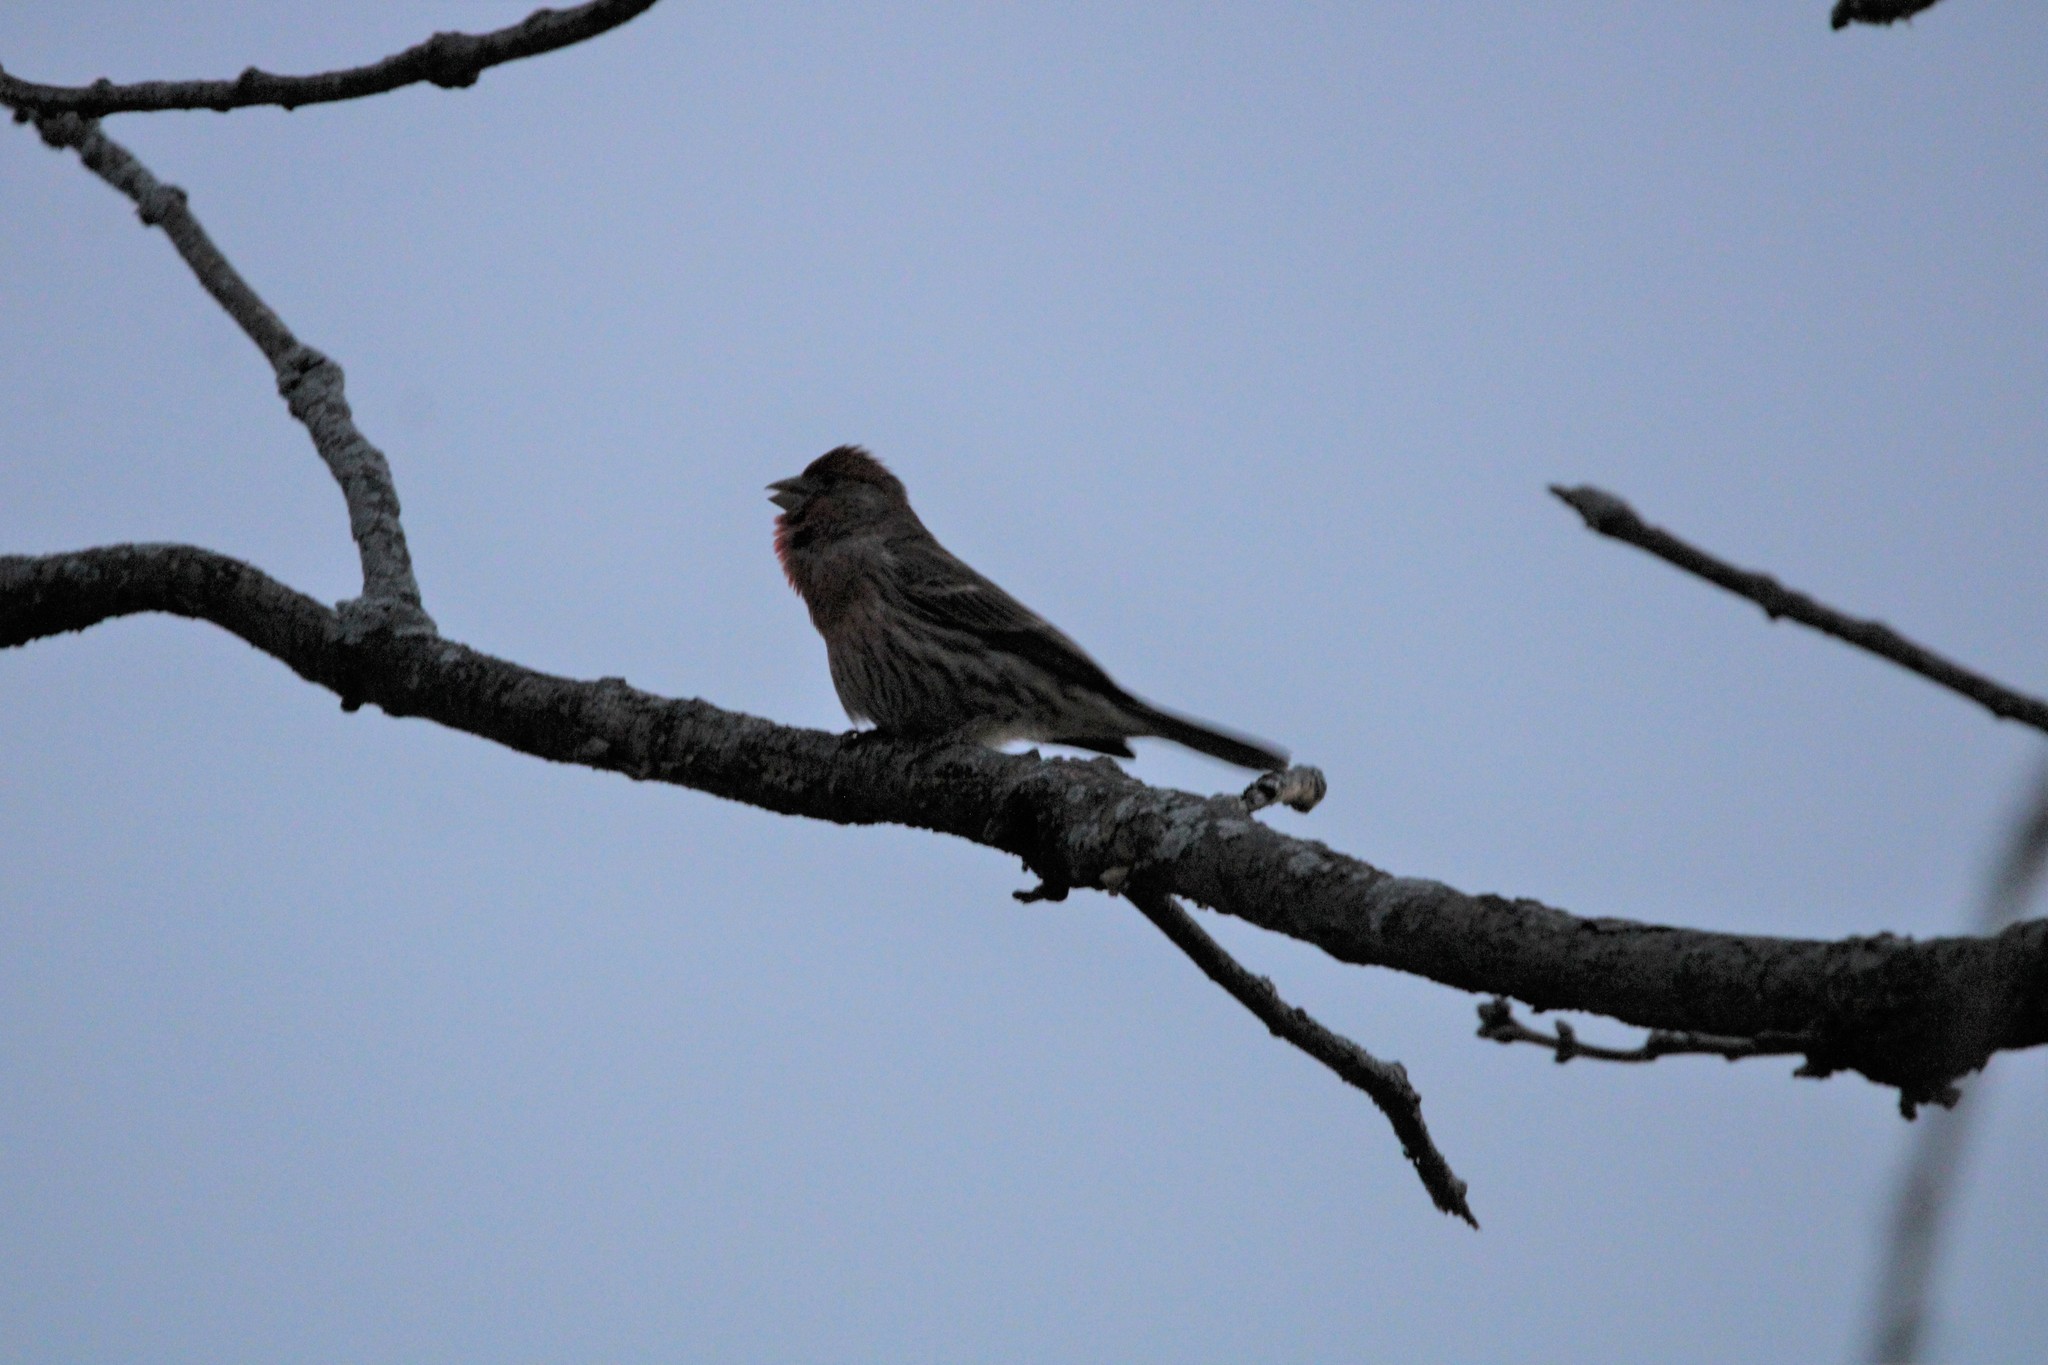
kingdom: Animalia
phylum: Chordata
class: Aves
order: Passeriformes
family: Fringillidae
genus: Haemorhous
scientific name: Haemorhous mexicanus
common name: House finch
